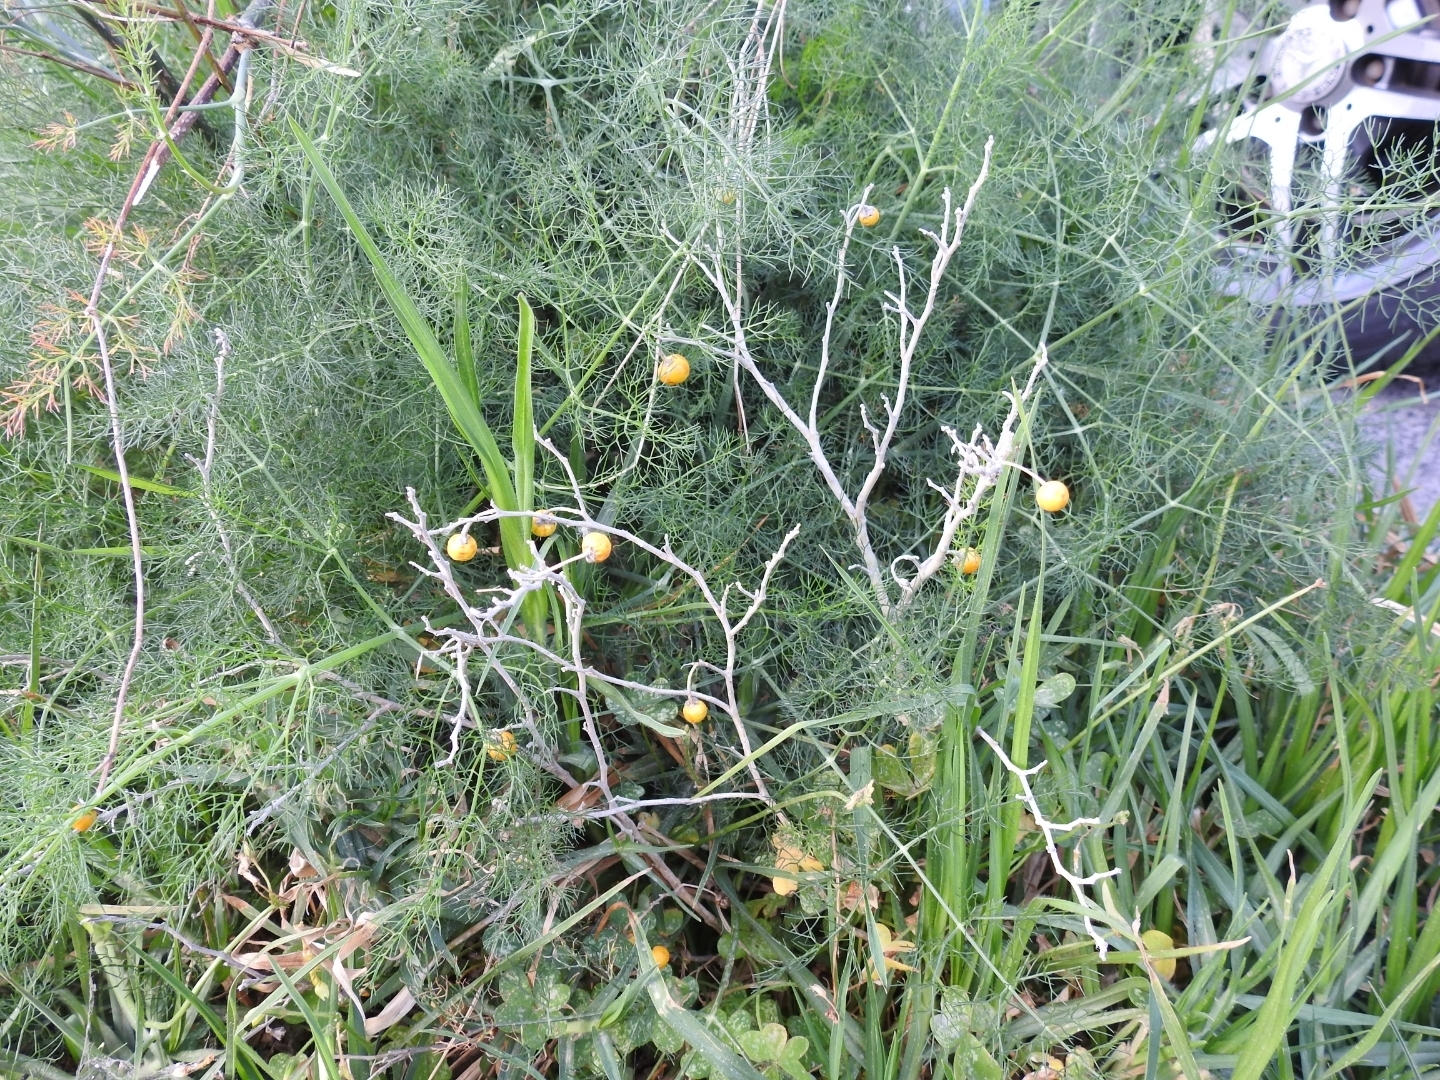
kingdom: Plantae
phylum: Tracheophyta
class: Magnoliopsida
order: Solanales
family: Solanaceae
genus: Solanum
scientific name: Solanum elaeagnifolium
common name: Silverleaf nightshade
